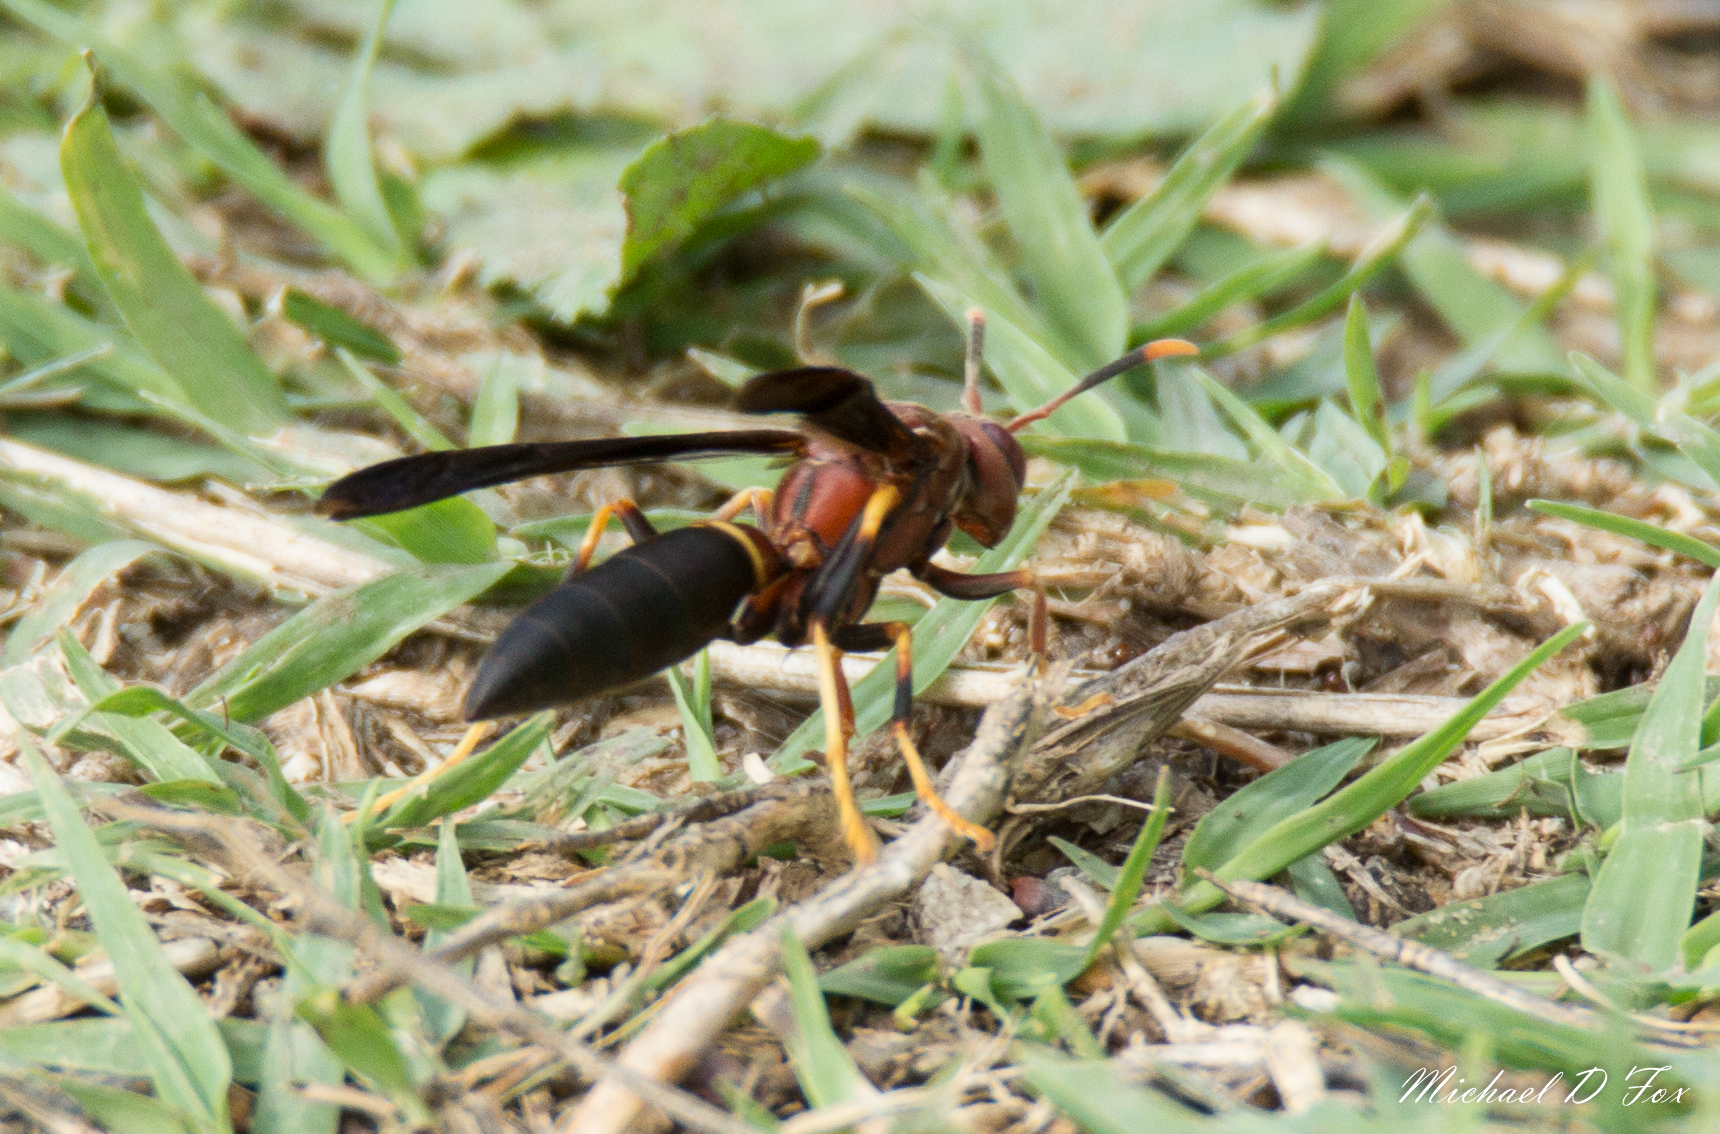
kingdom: Animalia
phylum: Arthropoda
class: Insecta
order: Hymenoptera
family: Eumenidae
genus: Polistes
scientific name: Polistes annularis
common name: Ringed paper wasp
